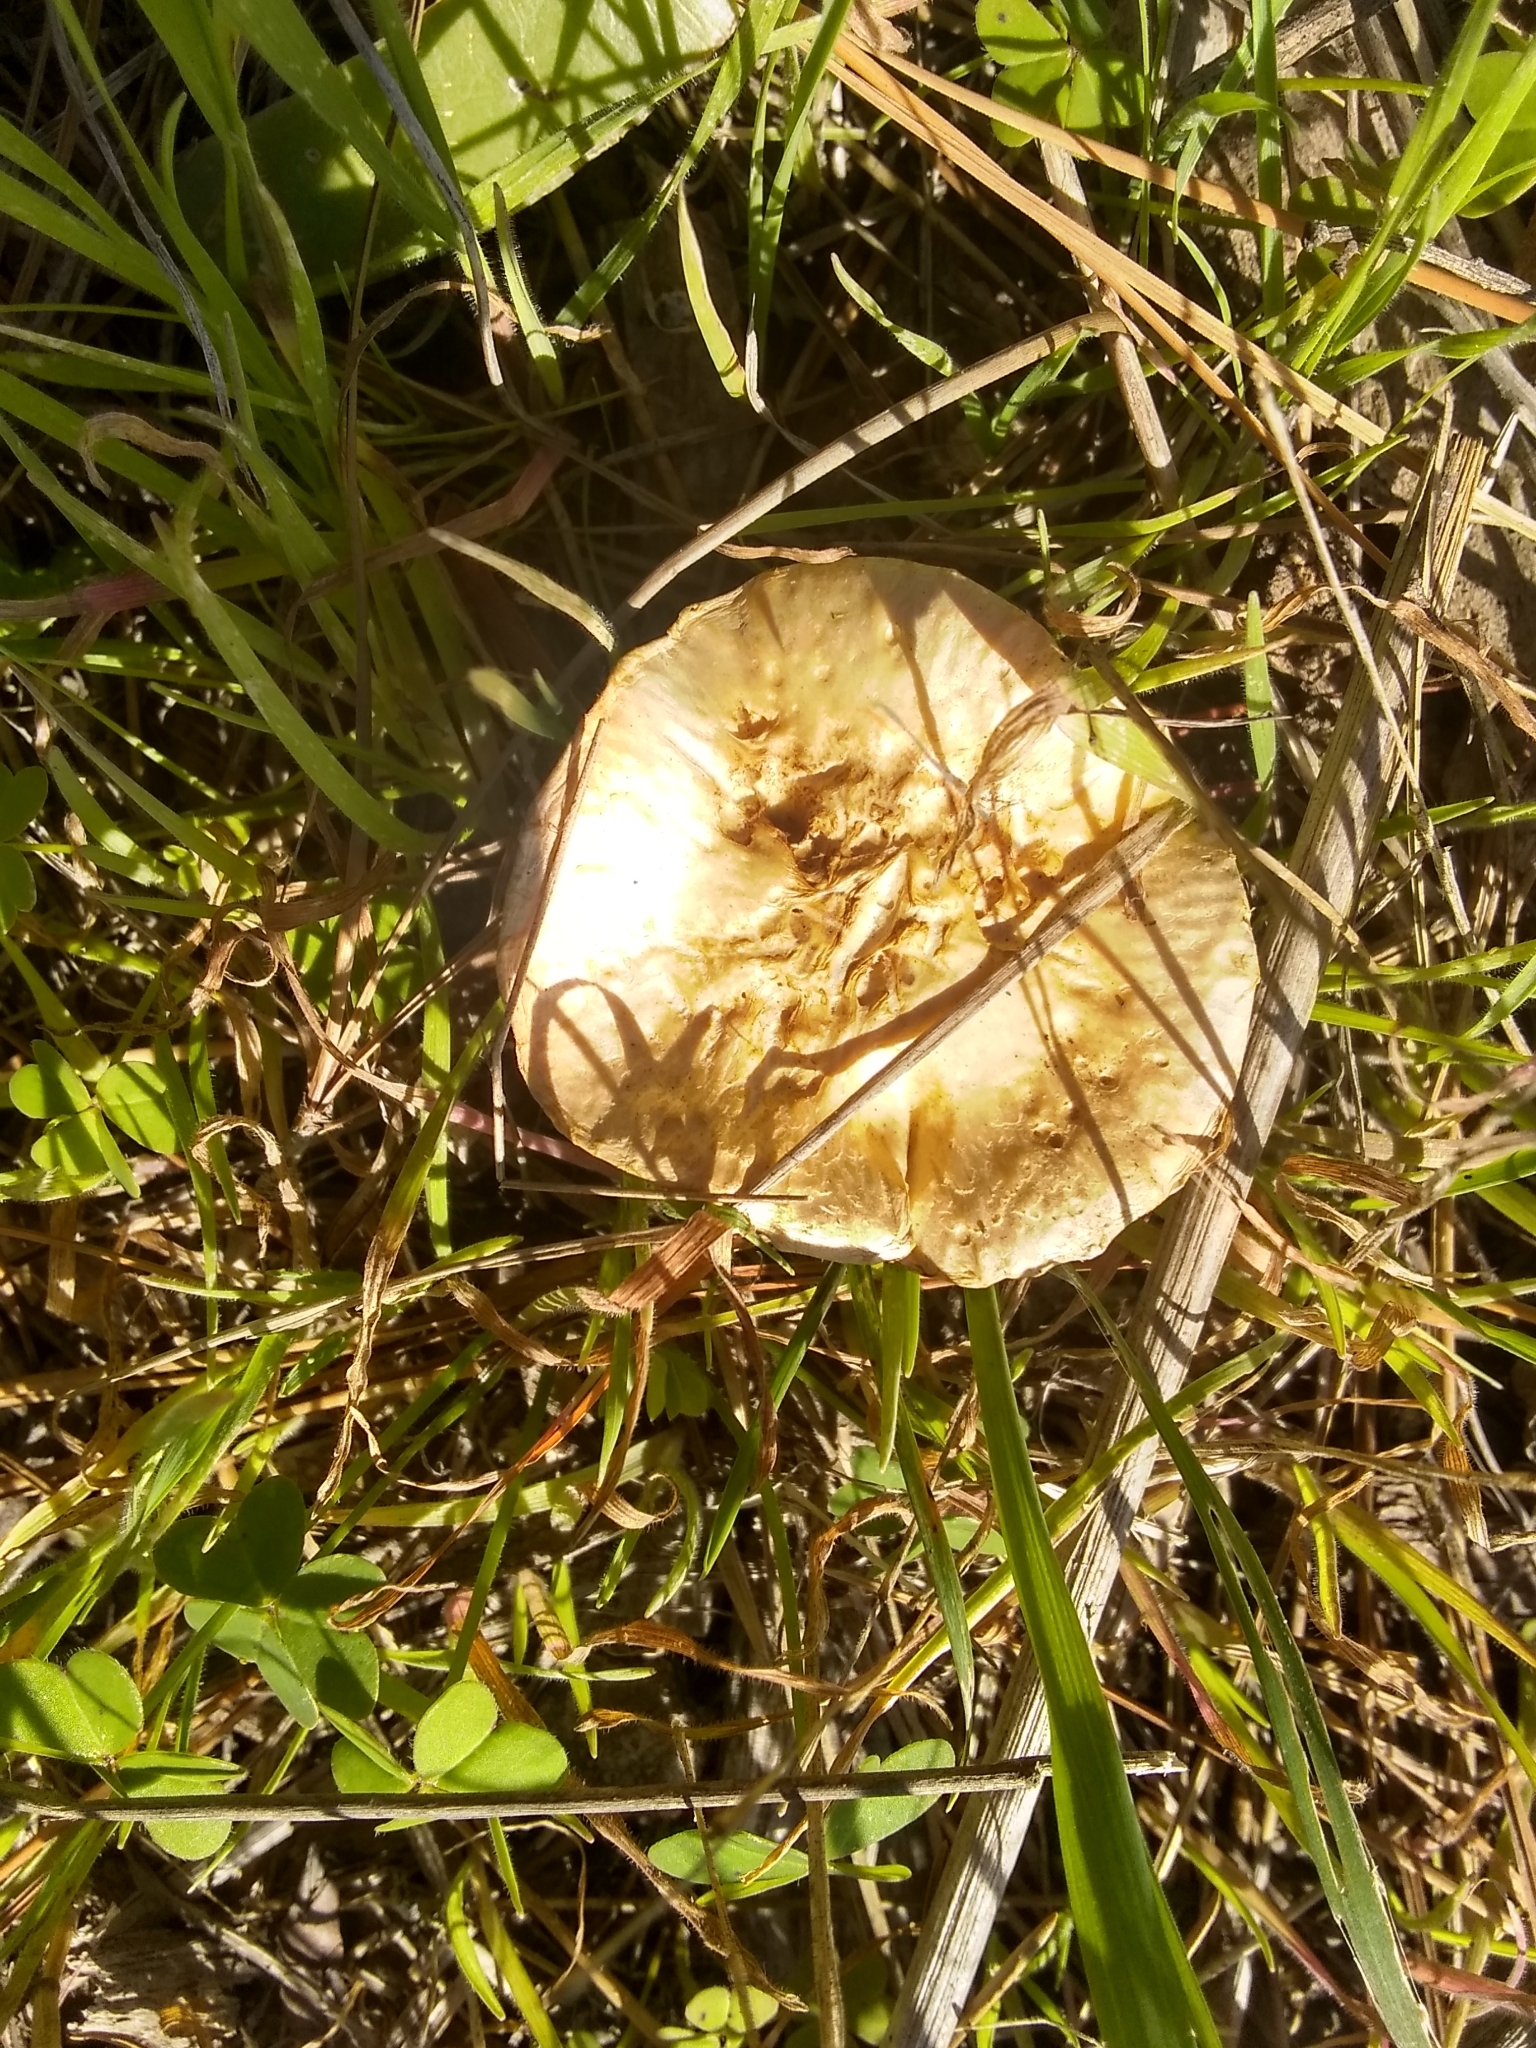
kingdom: Fungi
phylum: Basidiomycota
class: Agaricomycetes
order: Agaricales
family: Strophariaceae
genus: Leratiomyces
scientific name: Leratiomyces percevalii
